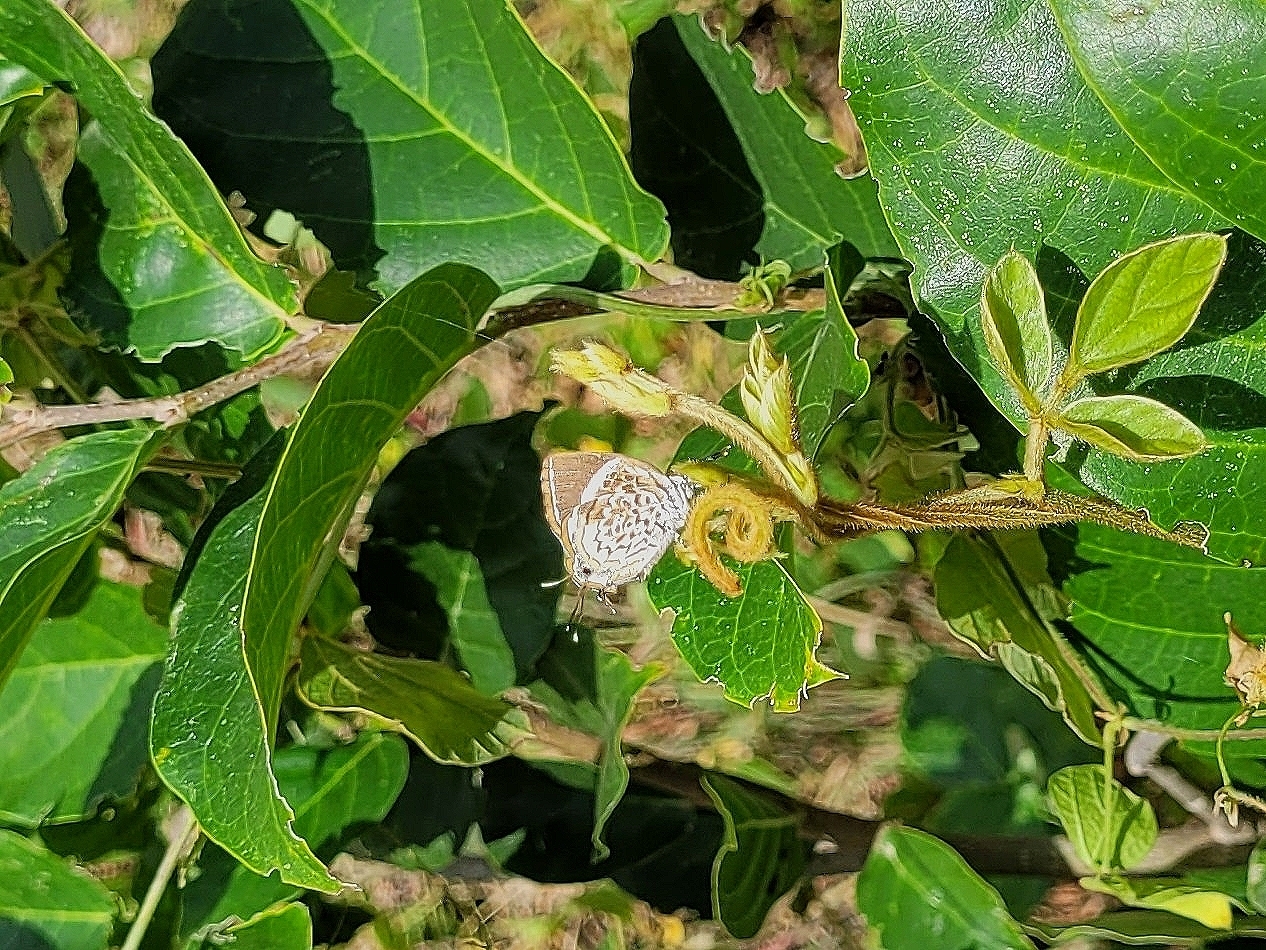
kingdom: Animalia
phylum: Arthropoda
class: Insecta
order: Lepidoptera
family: Lycaenidae
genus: Rathinda
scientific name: Rathinda amor
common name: Monkey puzzle
